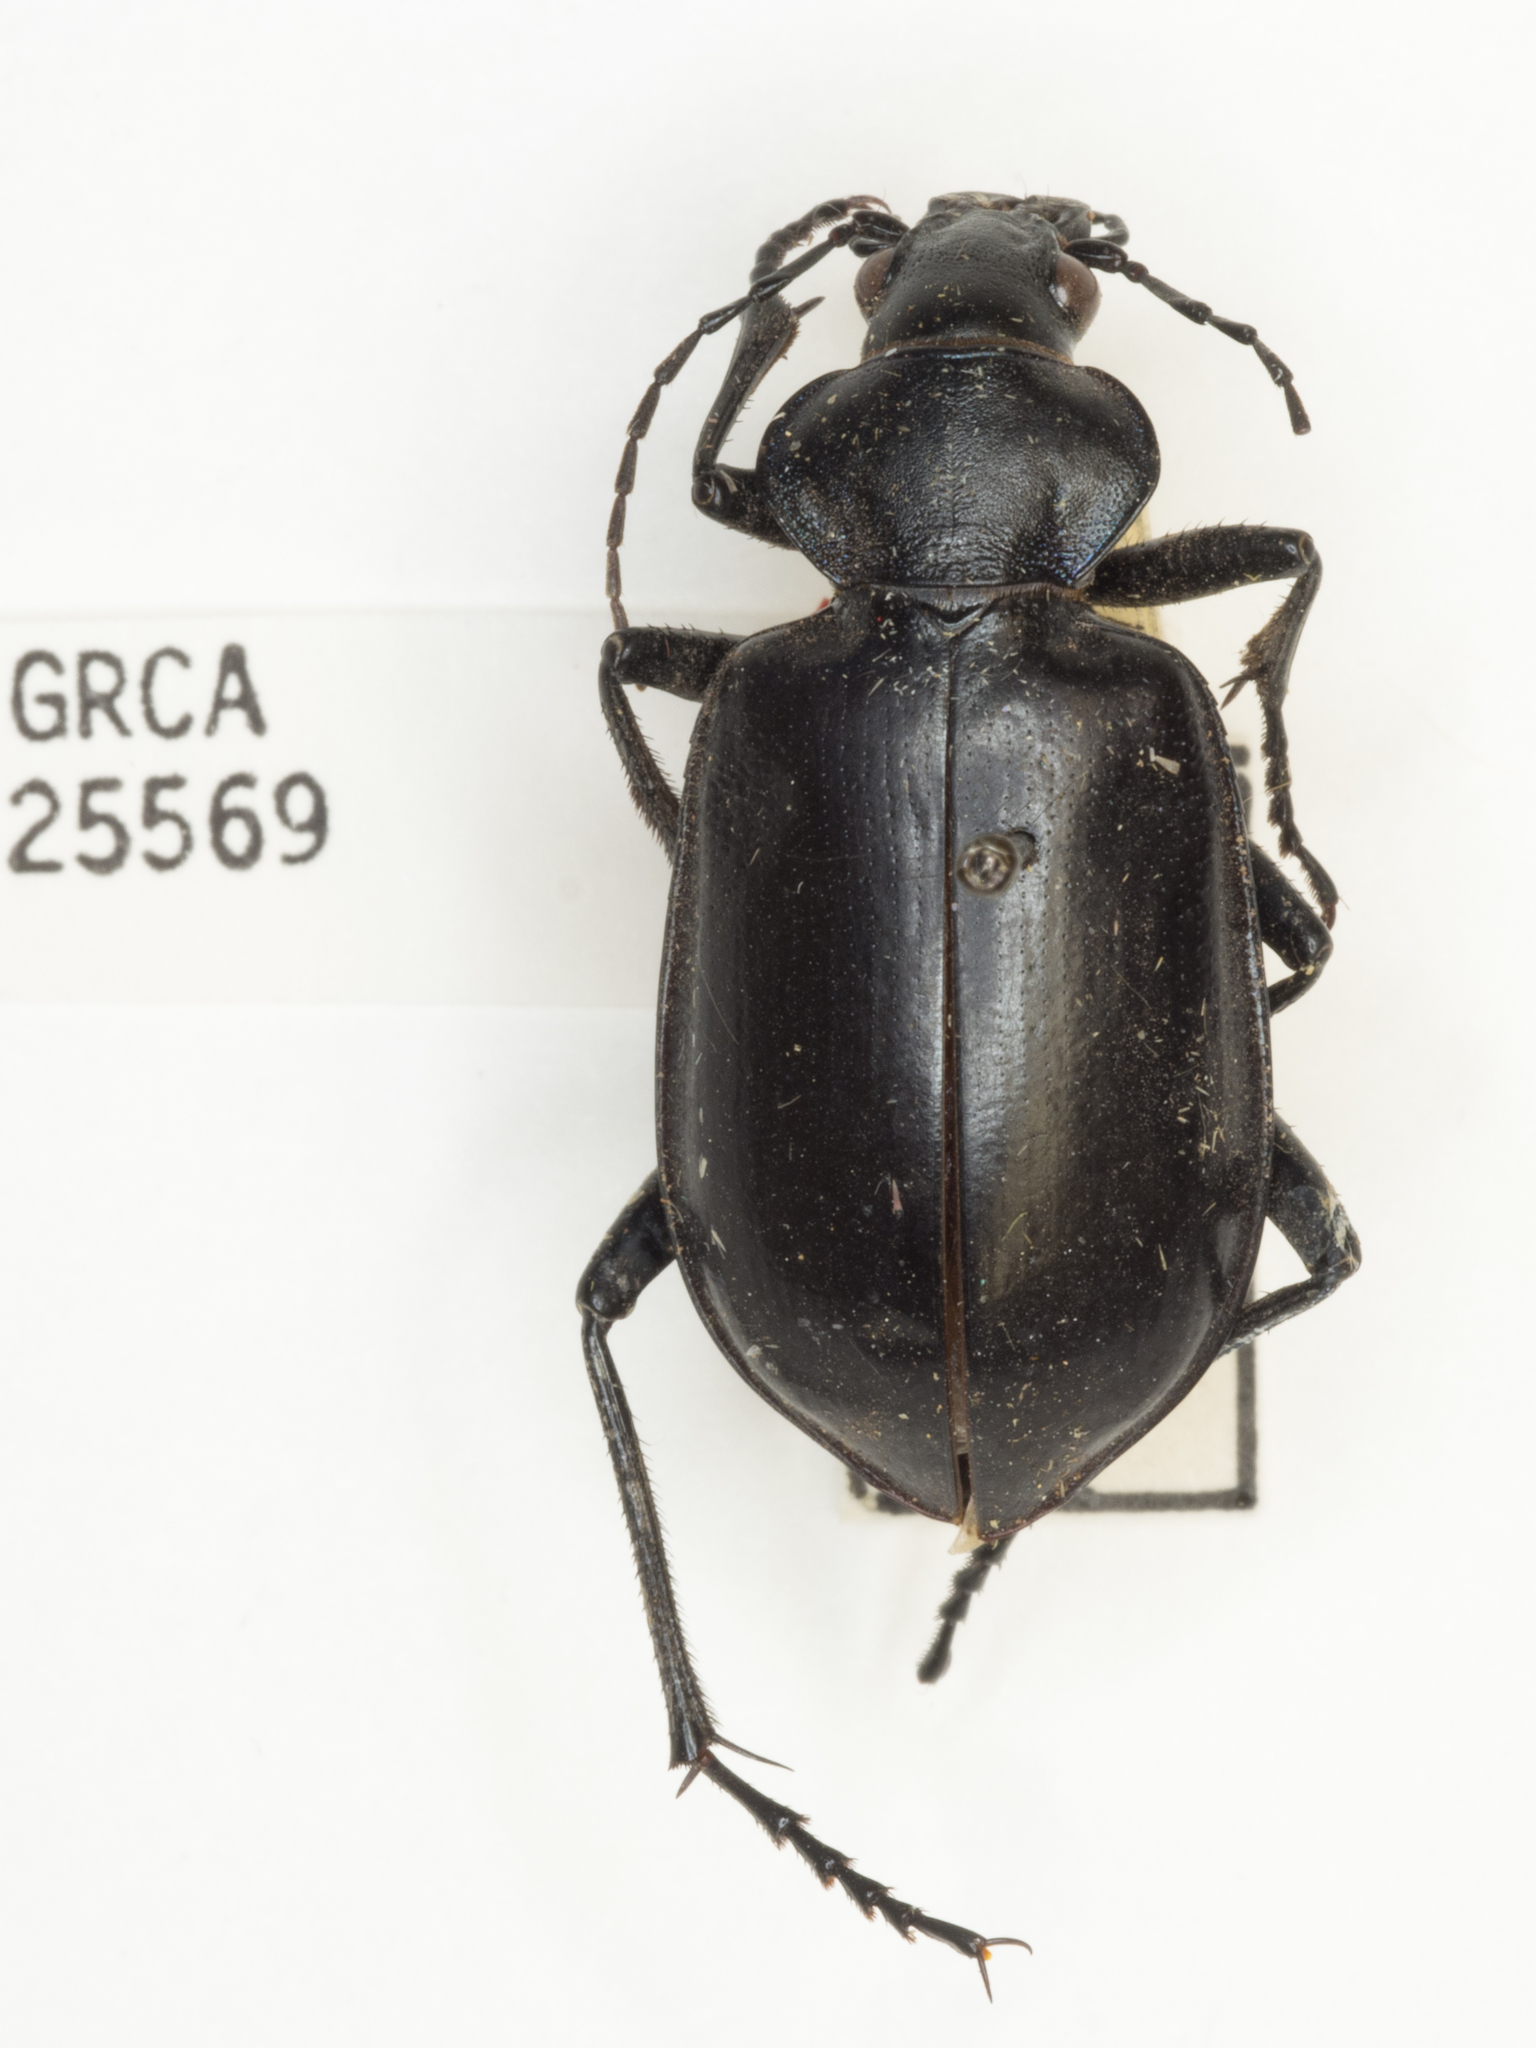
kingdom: Animalia
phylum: Arthropoda
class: Insecta
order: Coleoptera
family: Carabidae
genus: Calosoma
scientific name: Calosoma peregrinator
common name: Ground beetle
